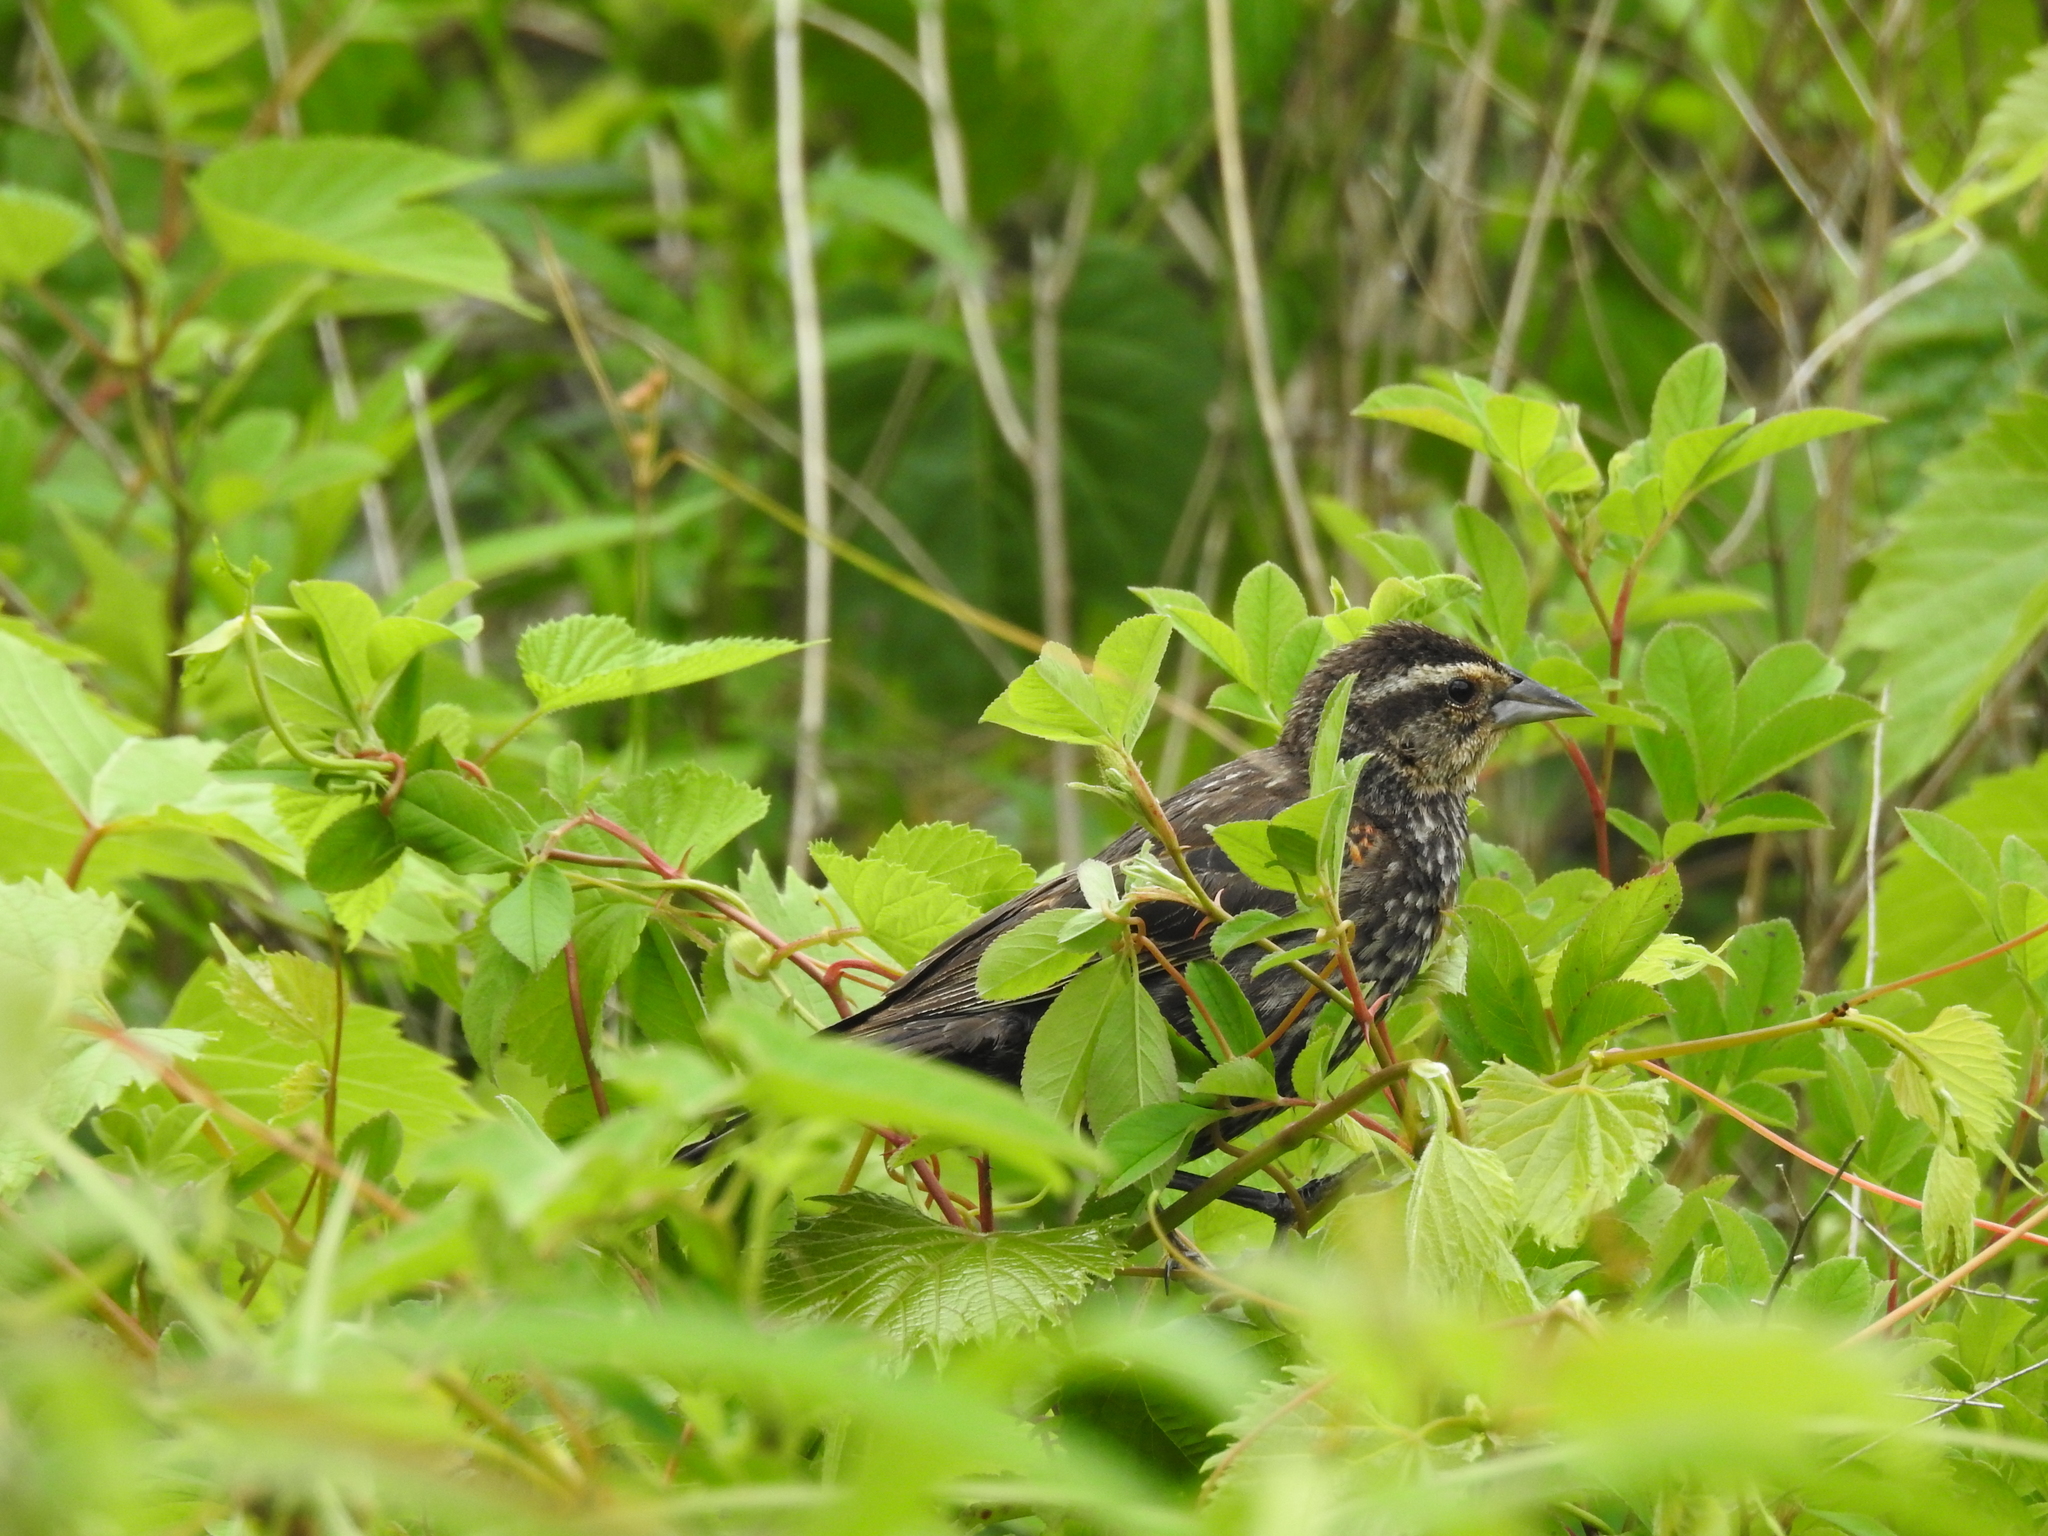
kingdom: Animalia
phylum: Chordata
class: Aves
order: Passeriformes
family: Icteridae
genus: Agelaius
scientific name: Agelaius phoeniceus
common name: Red-winged blackbird
